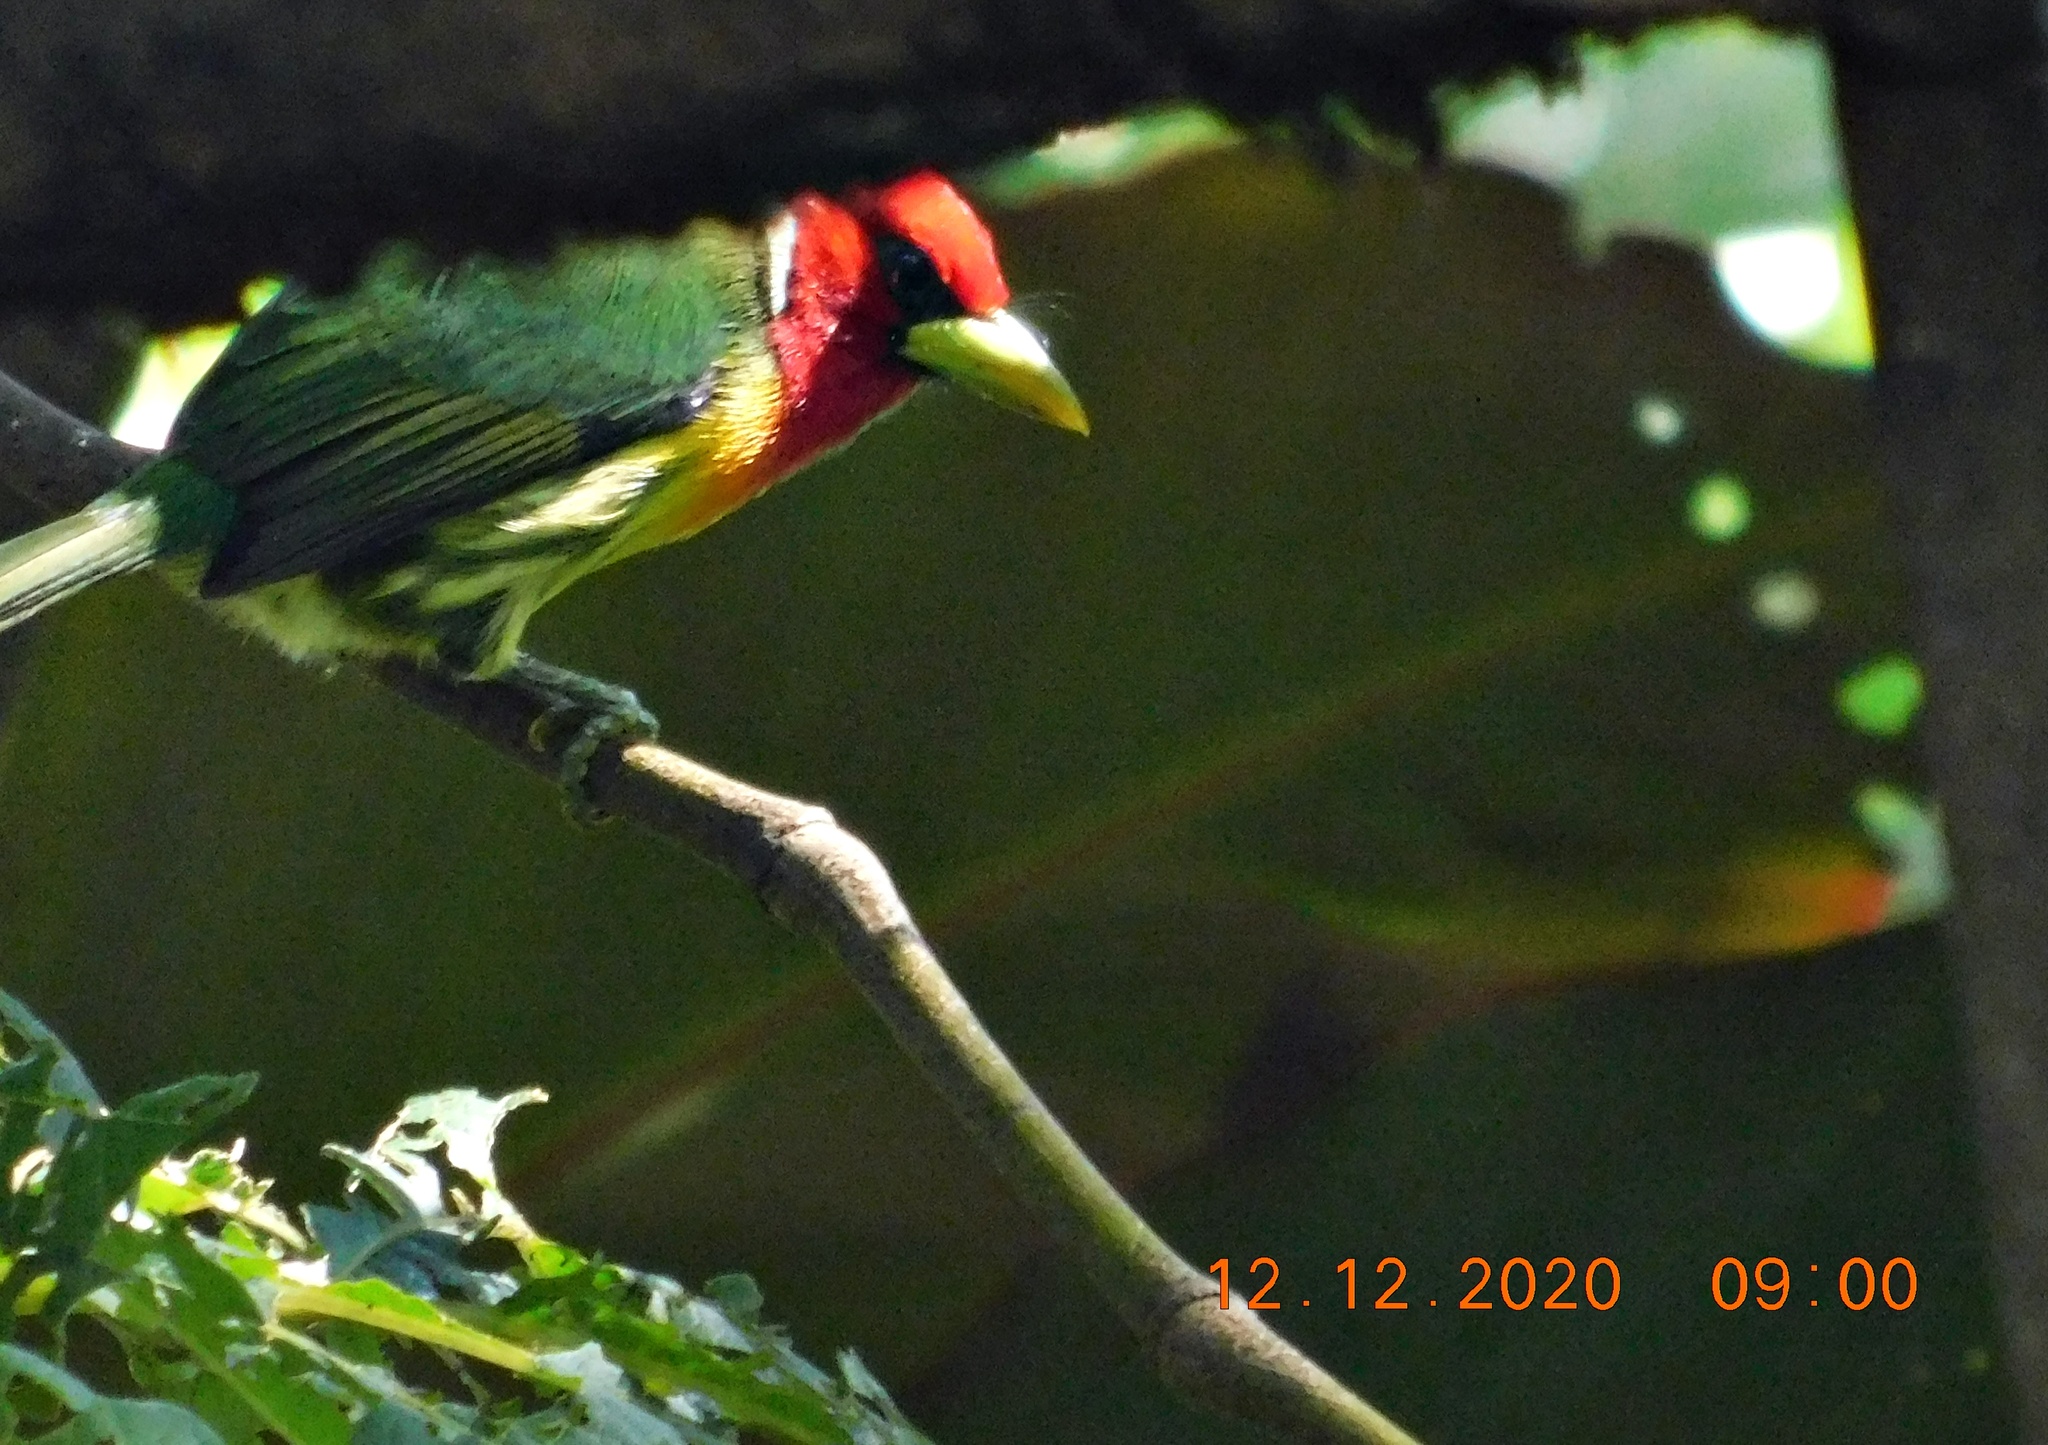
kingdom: Animalia
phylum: Chordata
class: Aves
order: Piciformes
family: Capitonidae
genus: Eubucco
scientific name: Eubucco bourcierii
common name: Red-headed barbet
